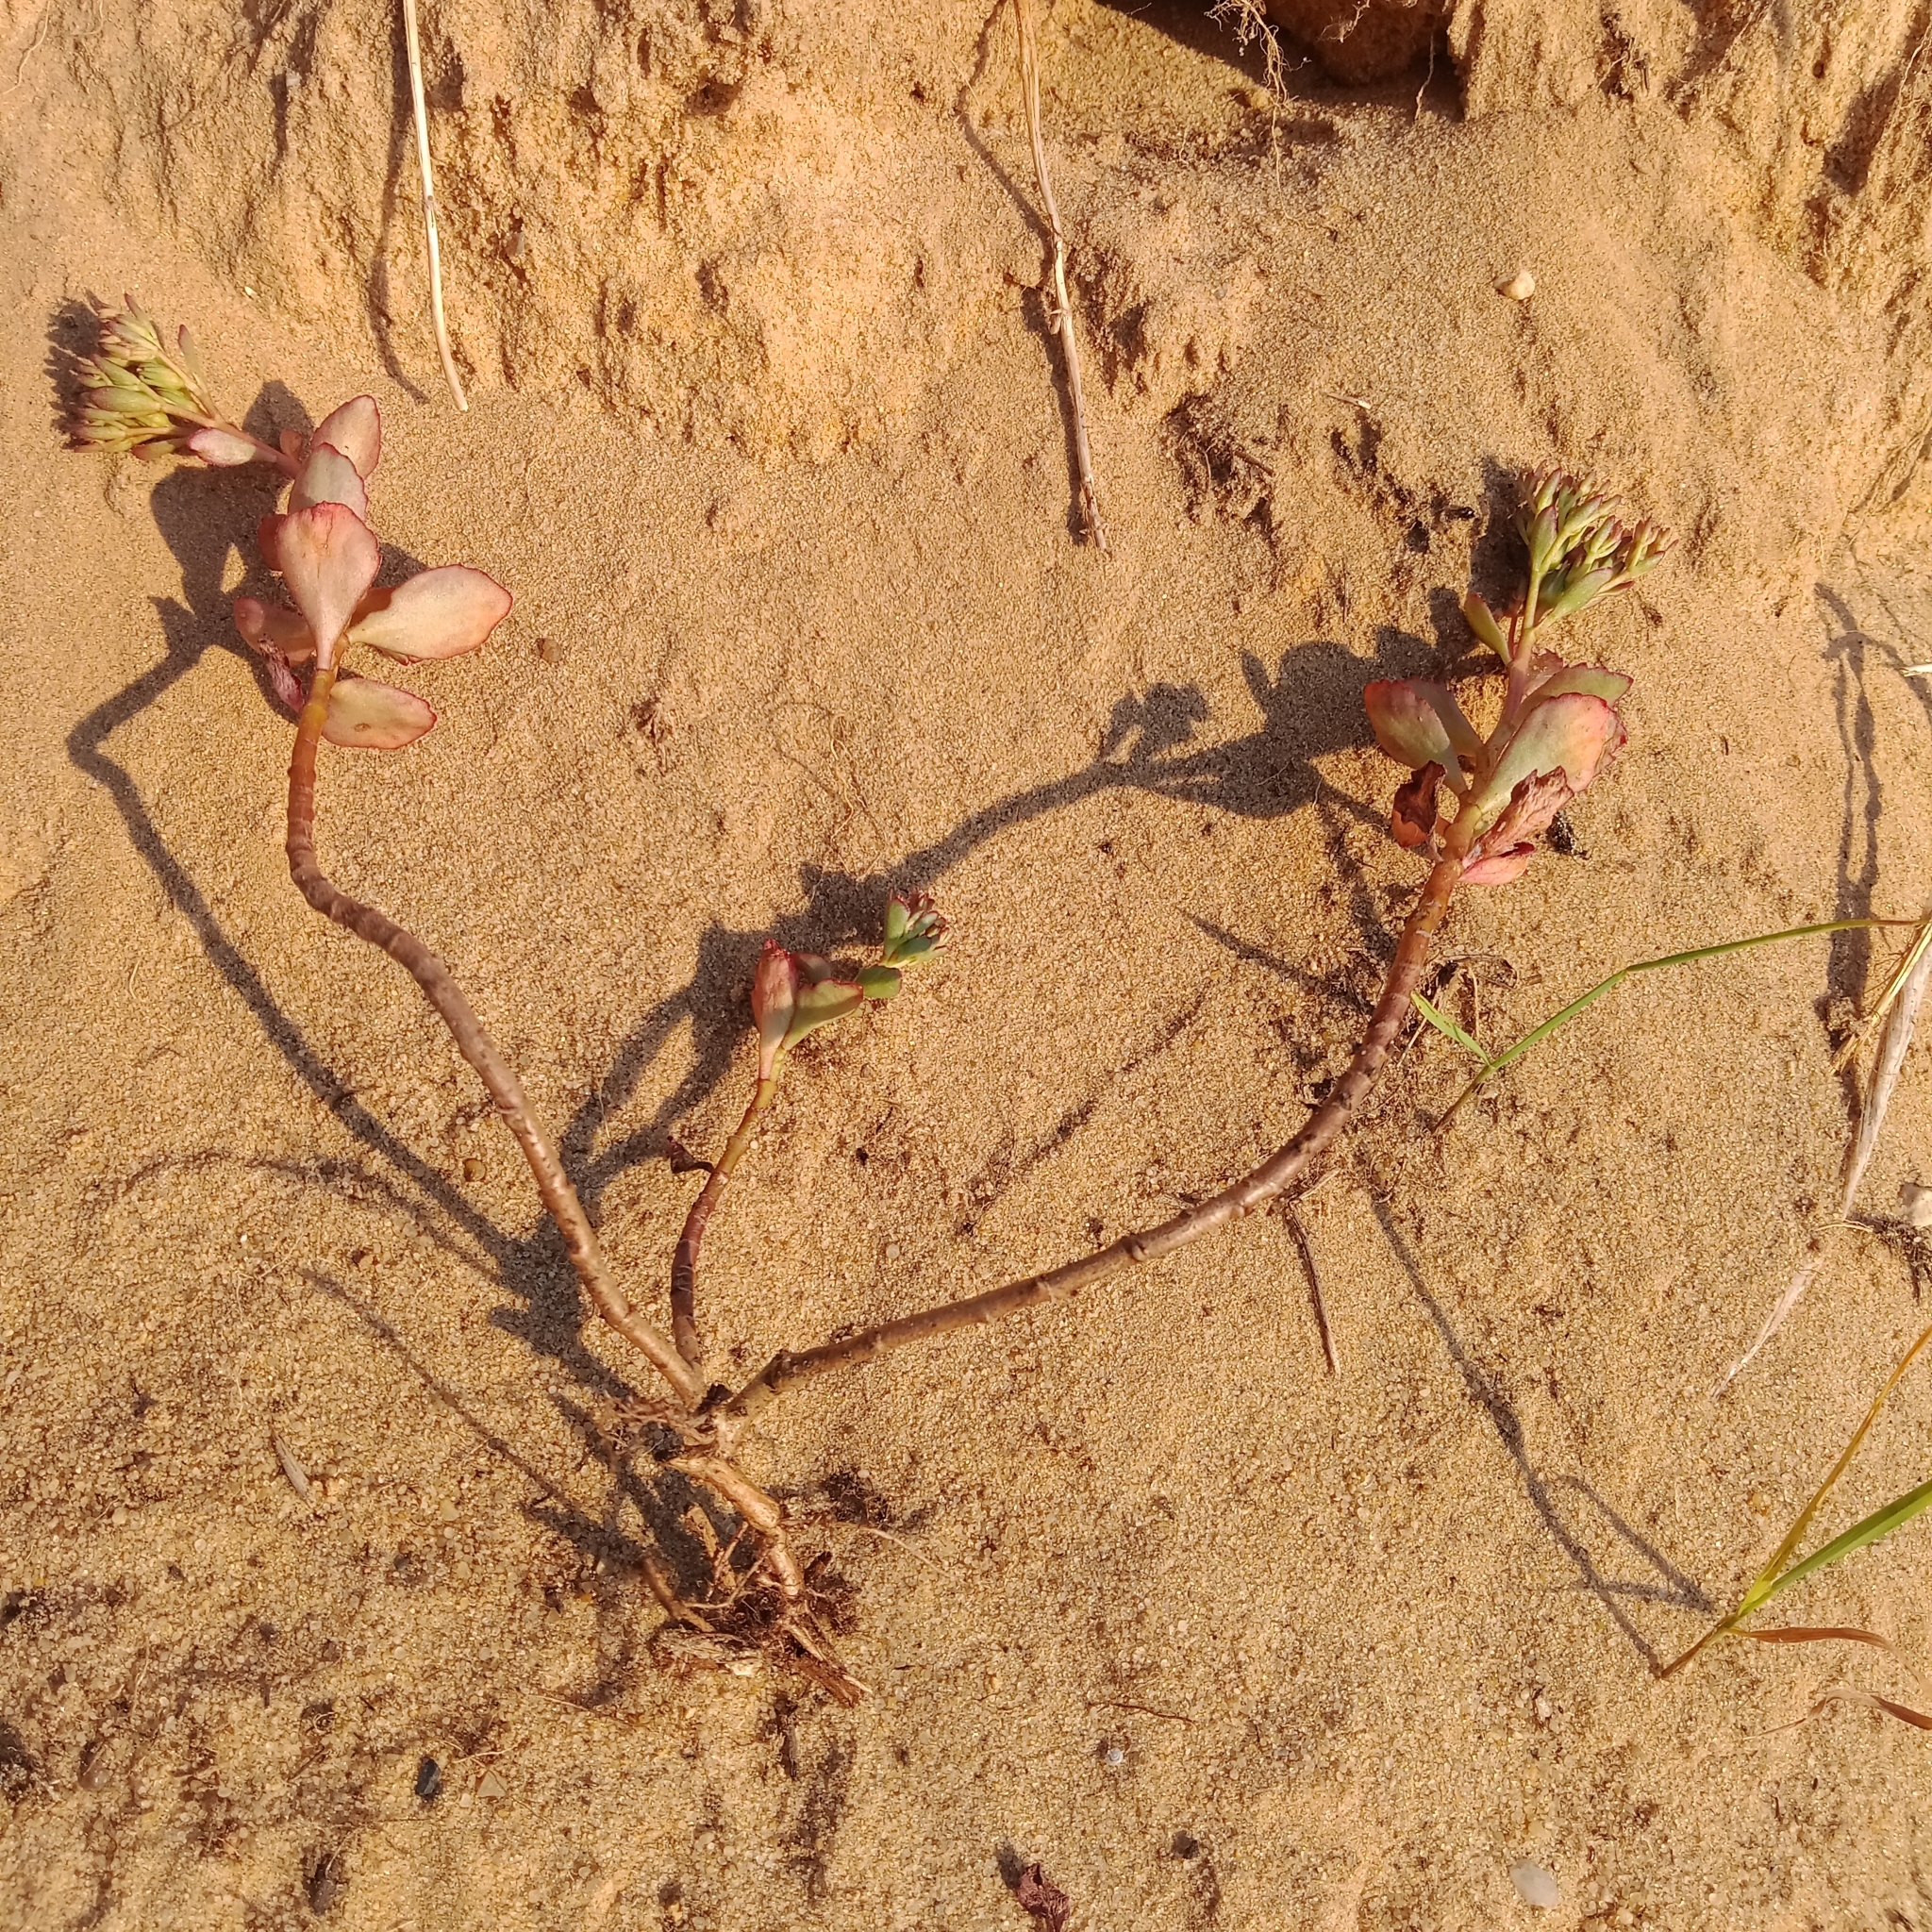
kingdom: Plantae
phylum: Tracheophyta
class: Magnoliopsida
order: Saxifragales
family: Crassulaceae
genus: Phedimus
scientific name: Phedimus spurius
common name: Caucasian stonecrop
